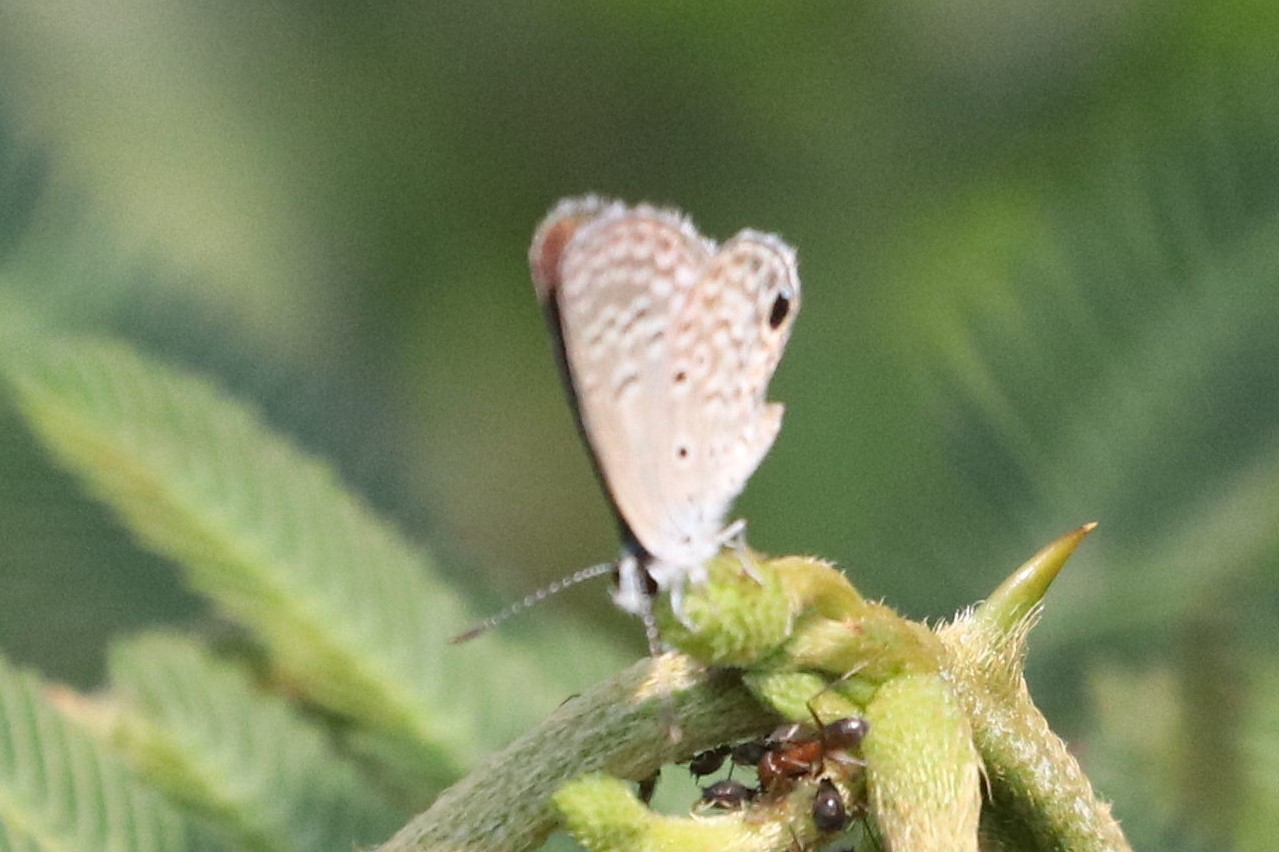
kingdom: Animalia
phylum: Arthropoda
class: Insecta
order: Lepidoptera
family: Lycaenidae
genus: Hemiargus
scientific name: Hemiargus hanno
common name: Common blue
